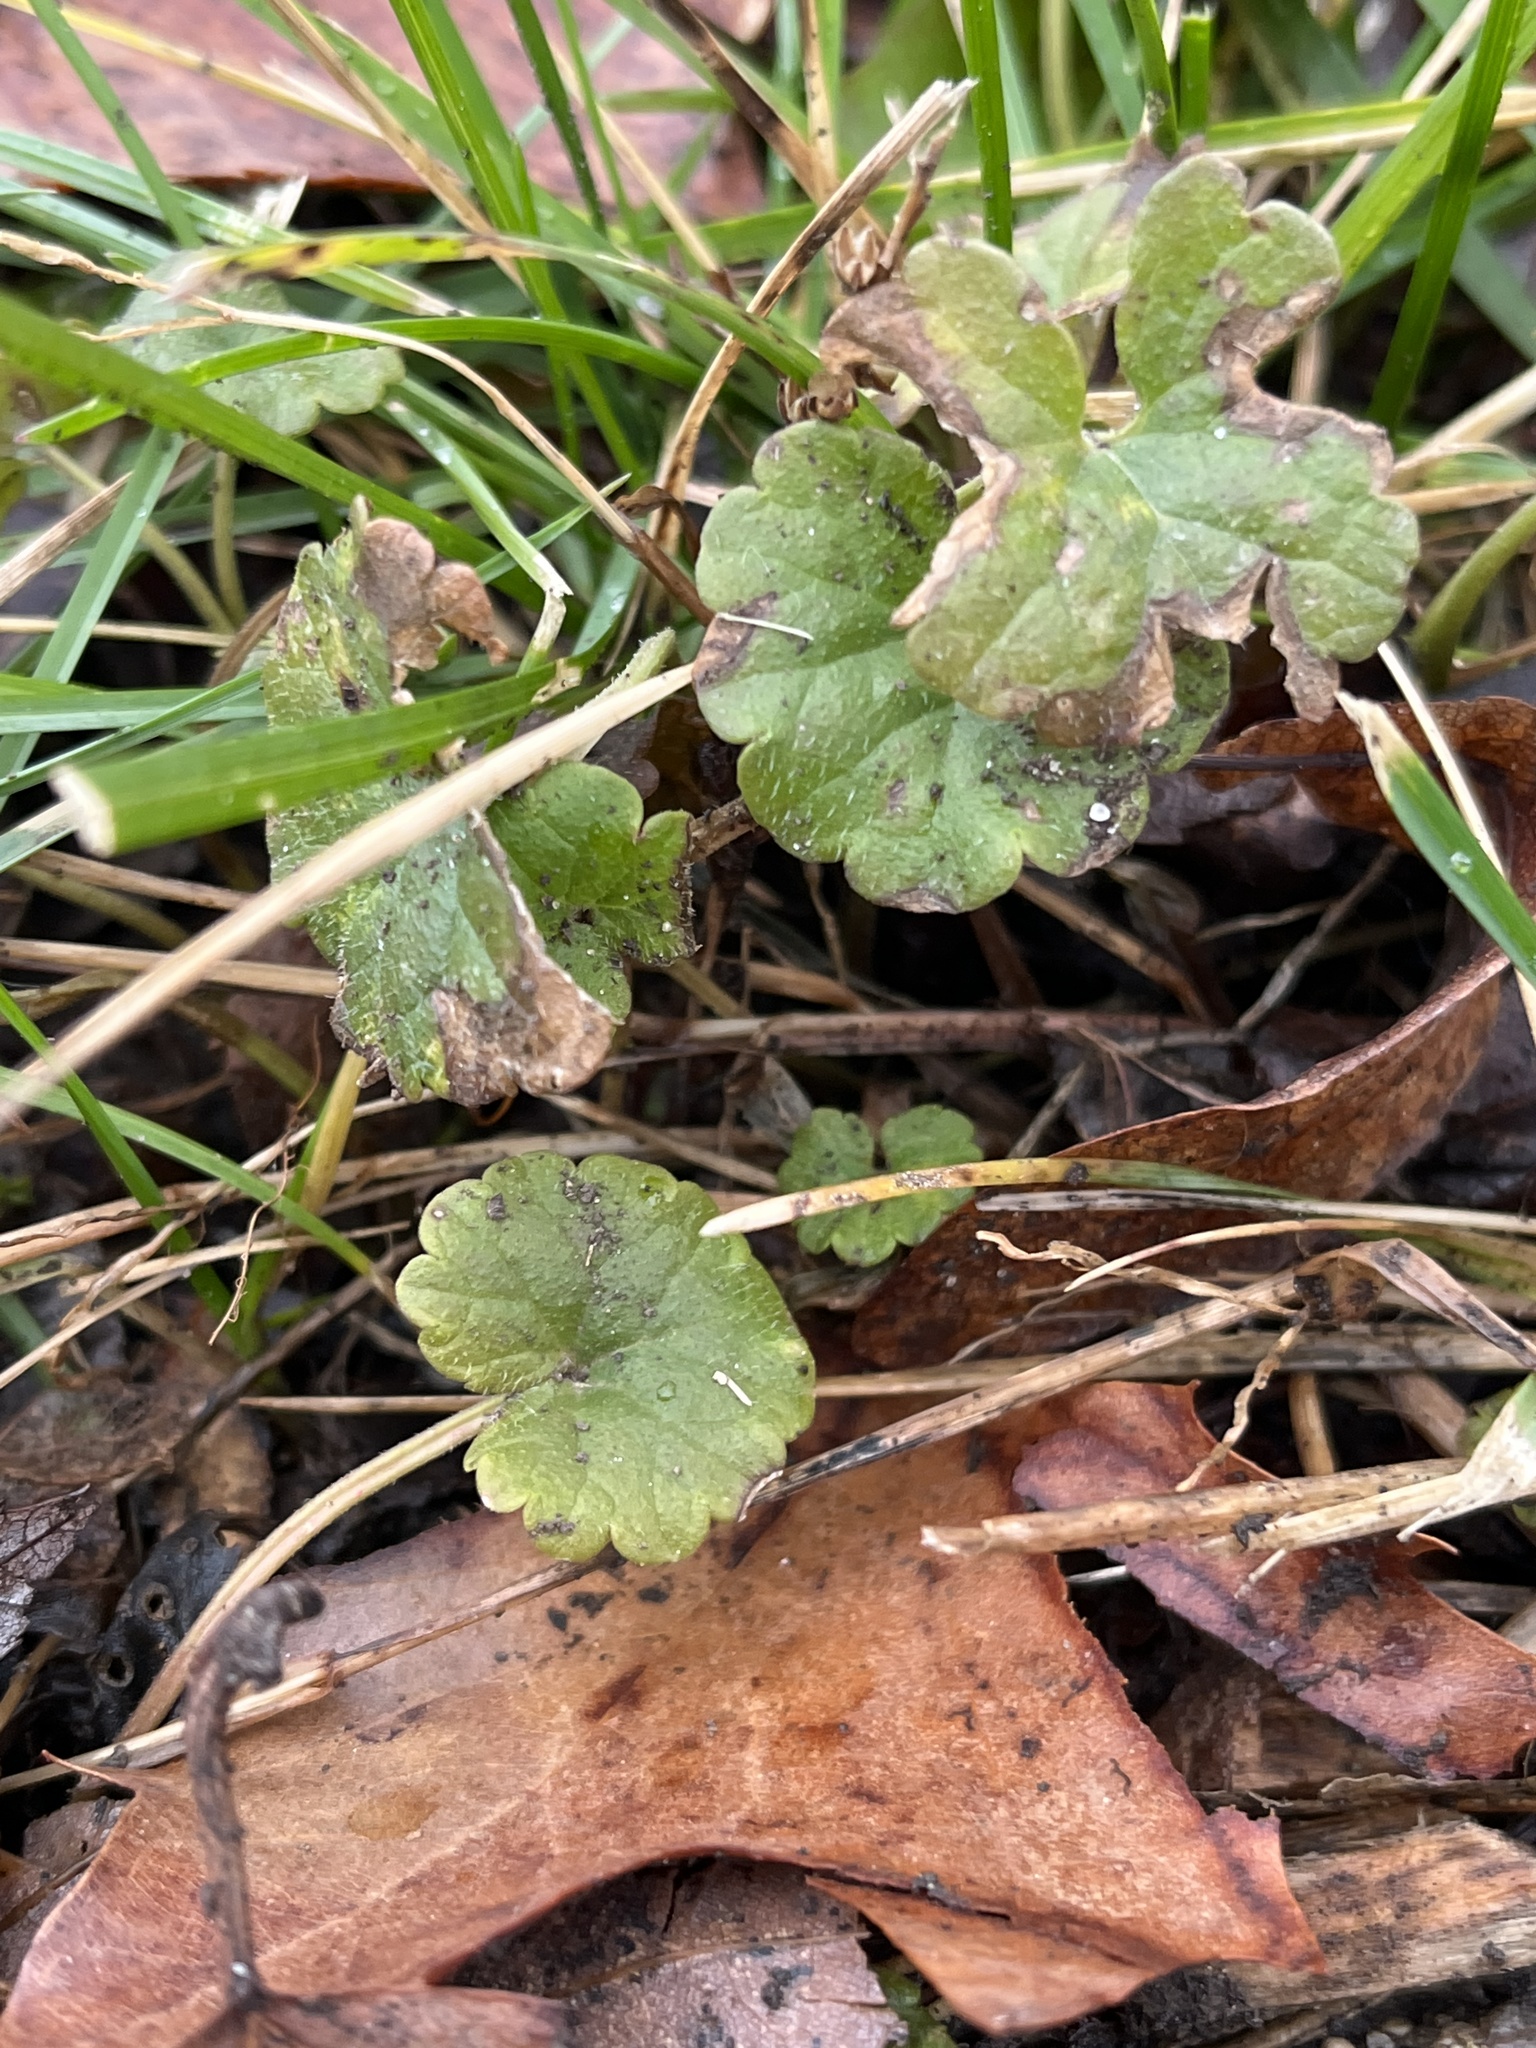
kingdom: Plantae
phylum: Tracheophyta
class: Magnoliopsida
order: Lamiales
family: Lamiaceae
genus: Glechoma
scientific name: Glechoma hederacea
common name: Ground ivy
